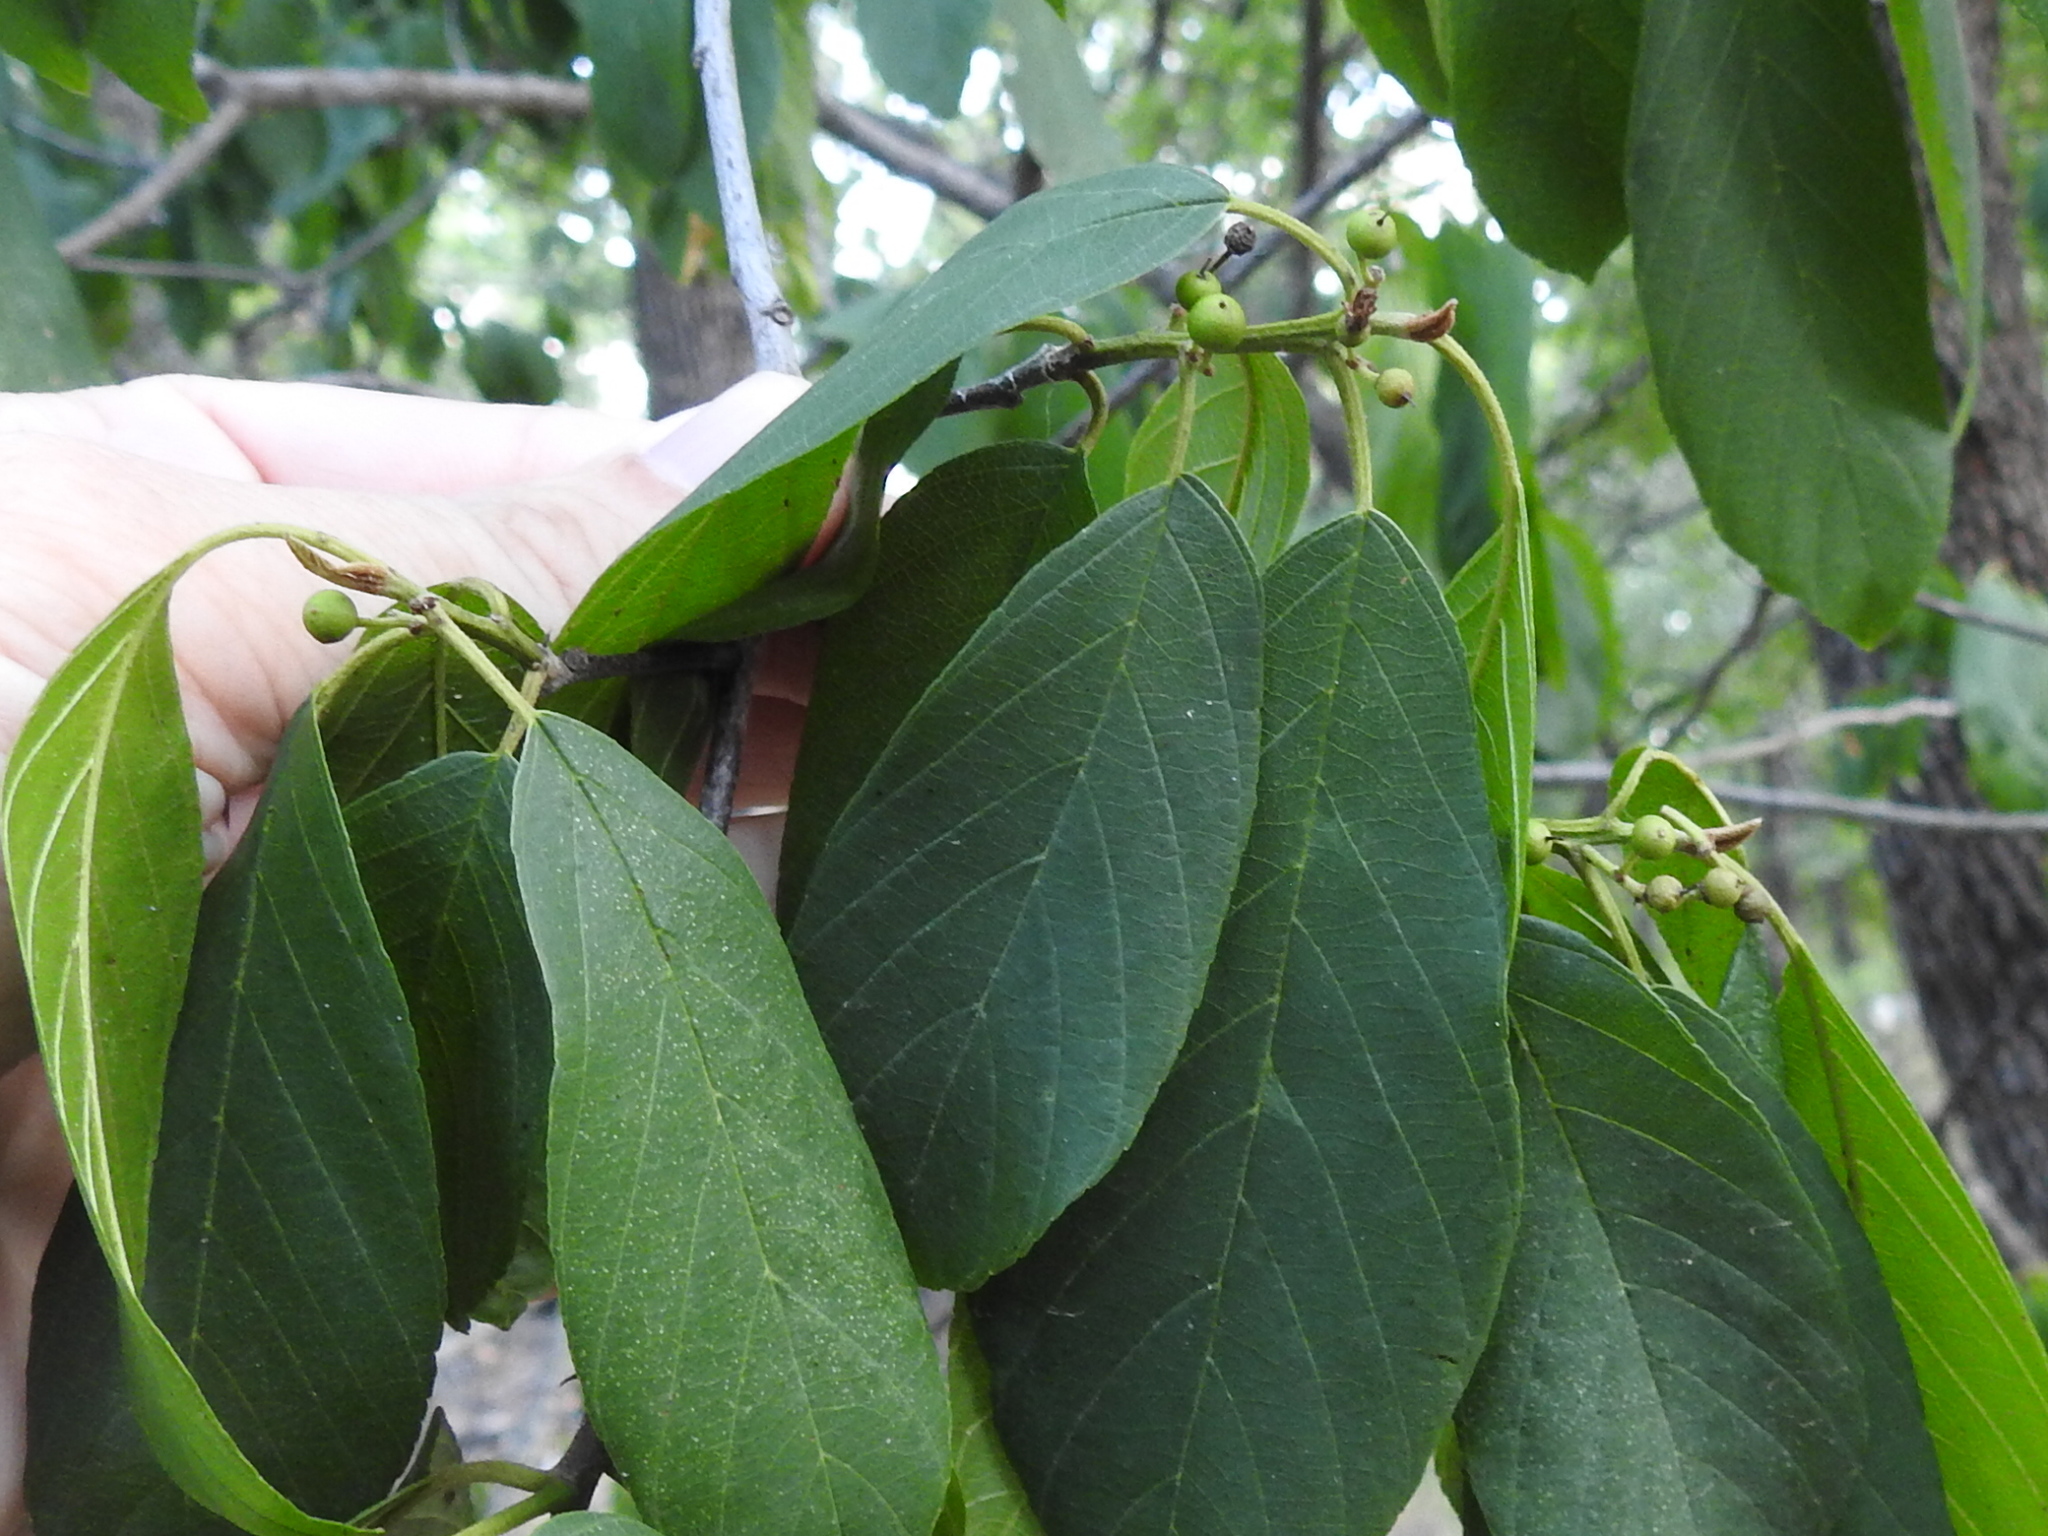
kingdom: Plantae
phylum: Tracheophyta
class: Magnoliopsida
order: Rosales
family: Rhamnaceae
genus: Frangula
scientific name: Frangula caroliniana
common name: Carolina buckthorn
